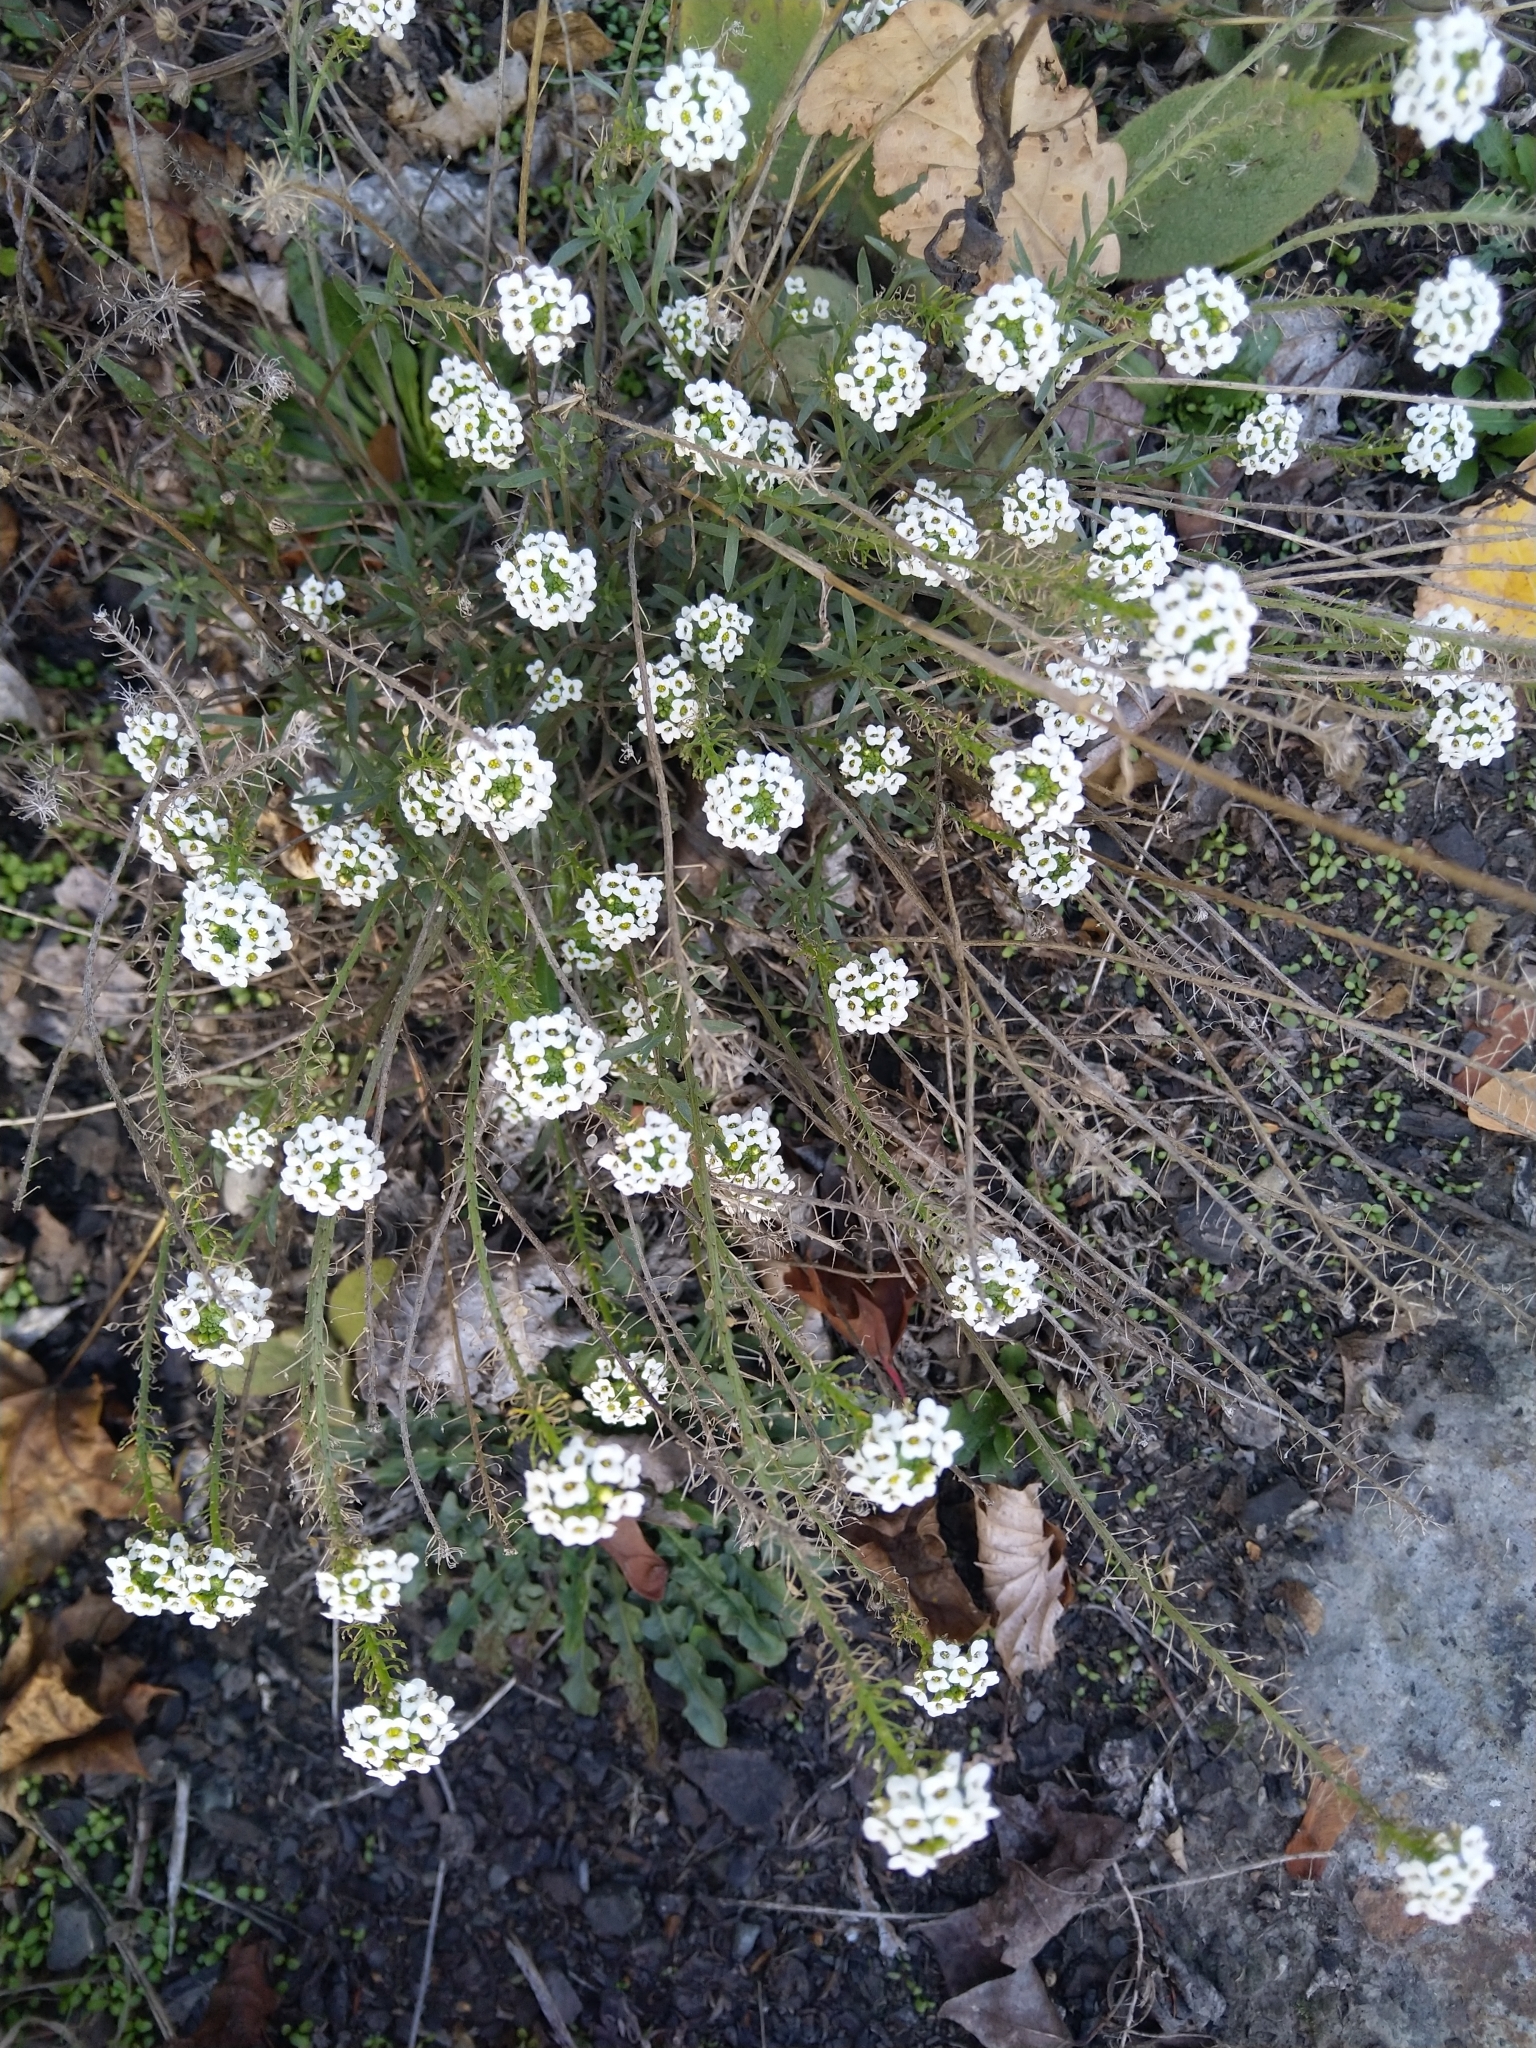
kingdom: Plantae
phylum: Tracheophyta
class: Magnoliopsida
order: Brassicales
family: Brassicaceae
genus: Lobularia
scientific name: Lobularia maritima
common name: Sweet alison
